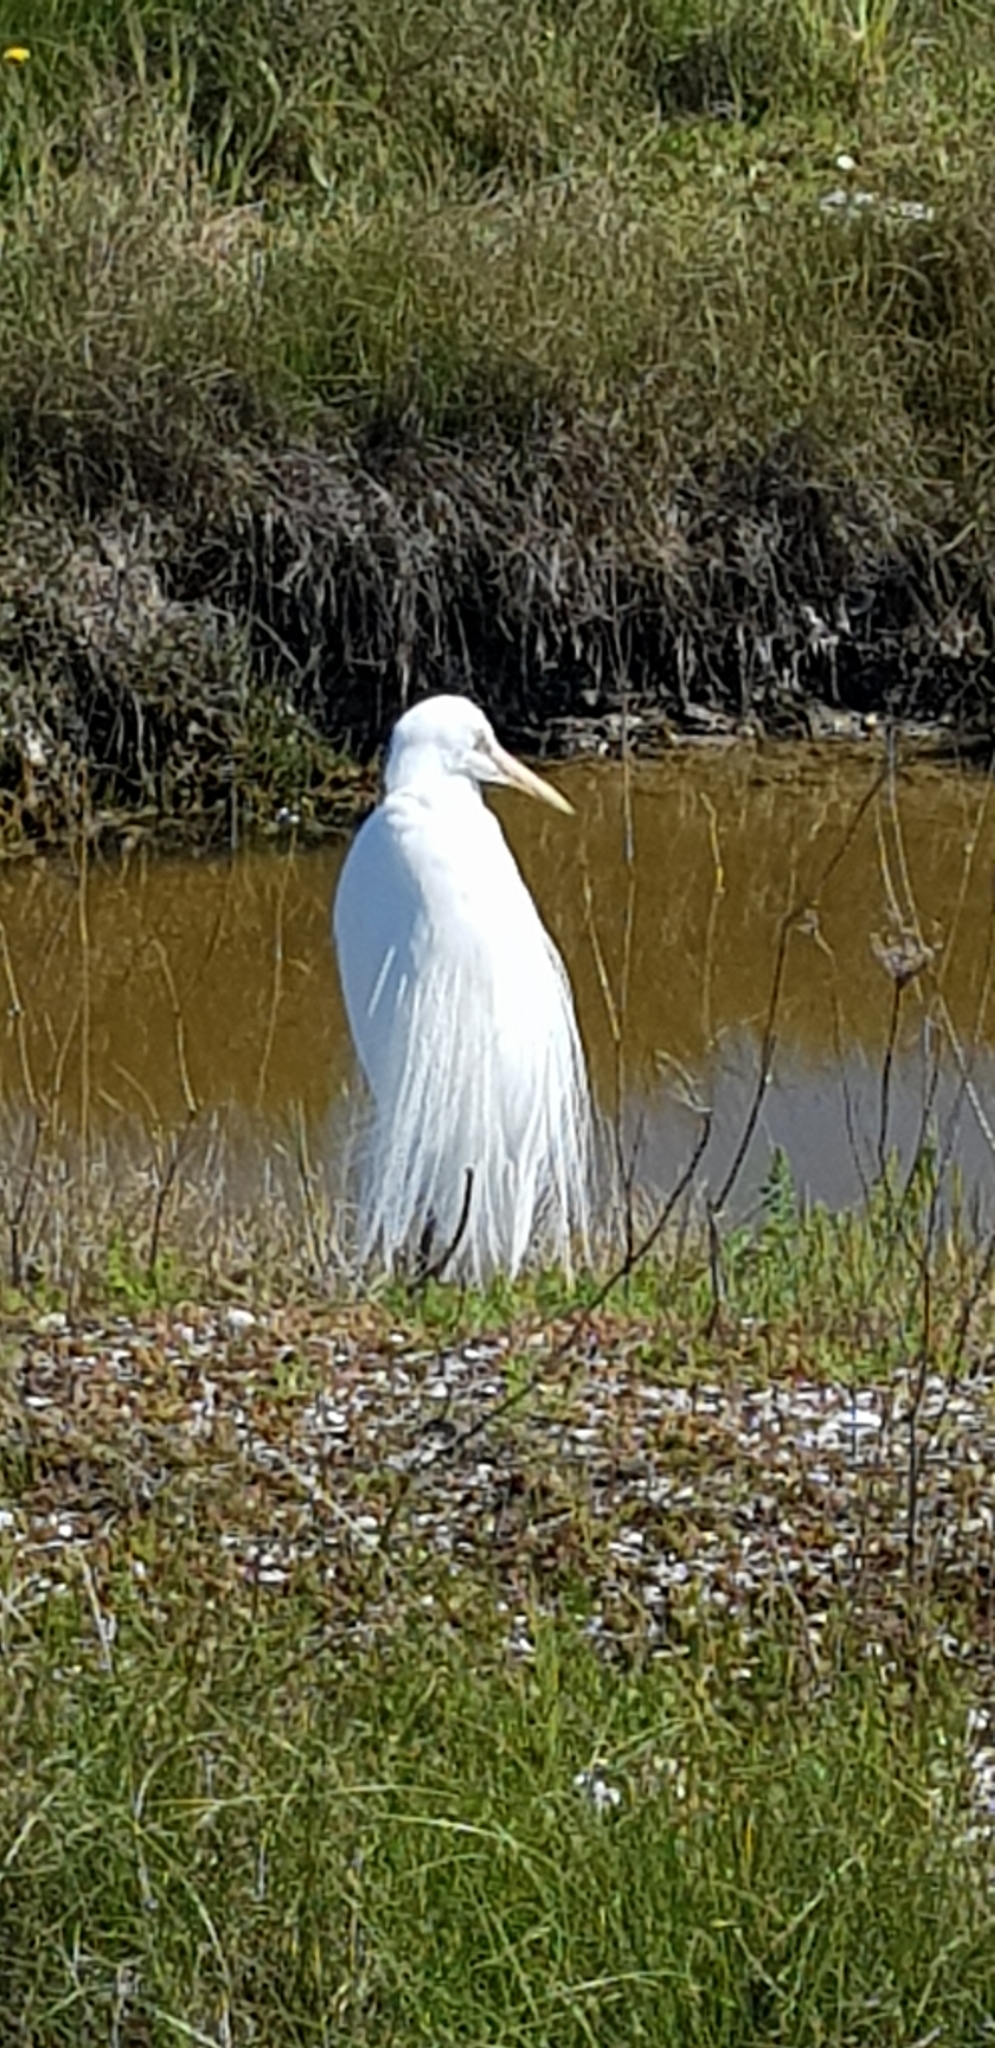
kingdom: Animalia
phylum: Chordata
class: Aves
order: Pelecaniformes
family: Ardeidae
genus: Ardea
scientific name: Ardea modesta
